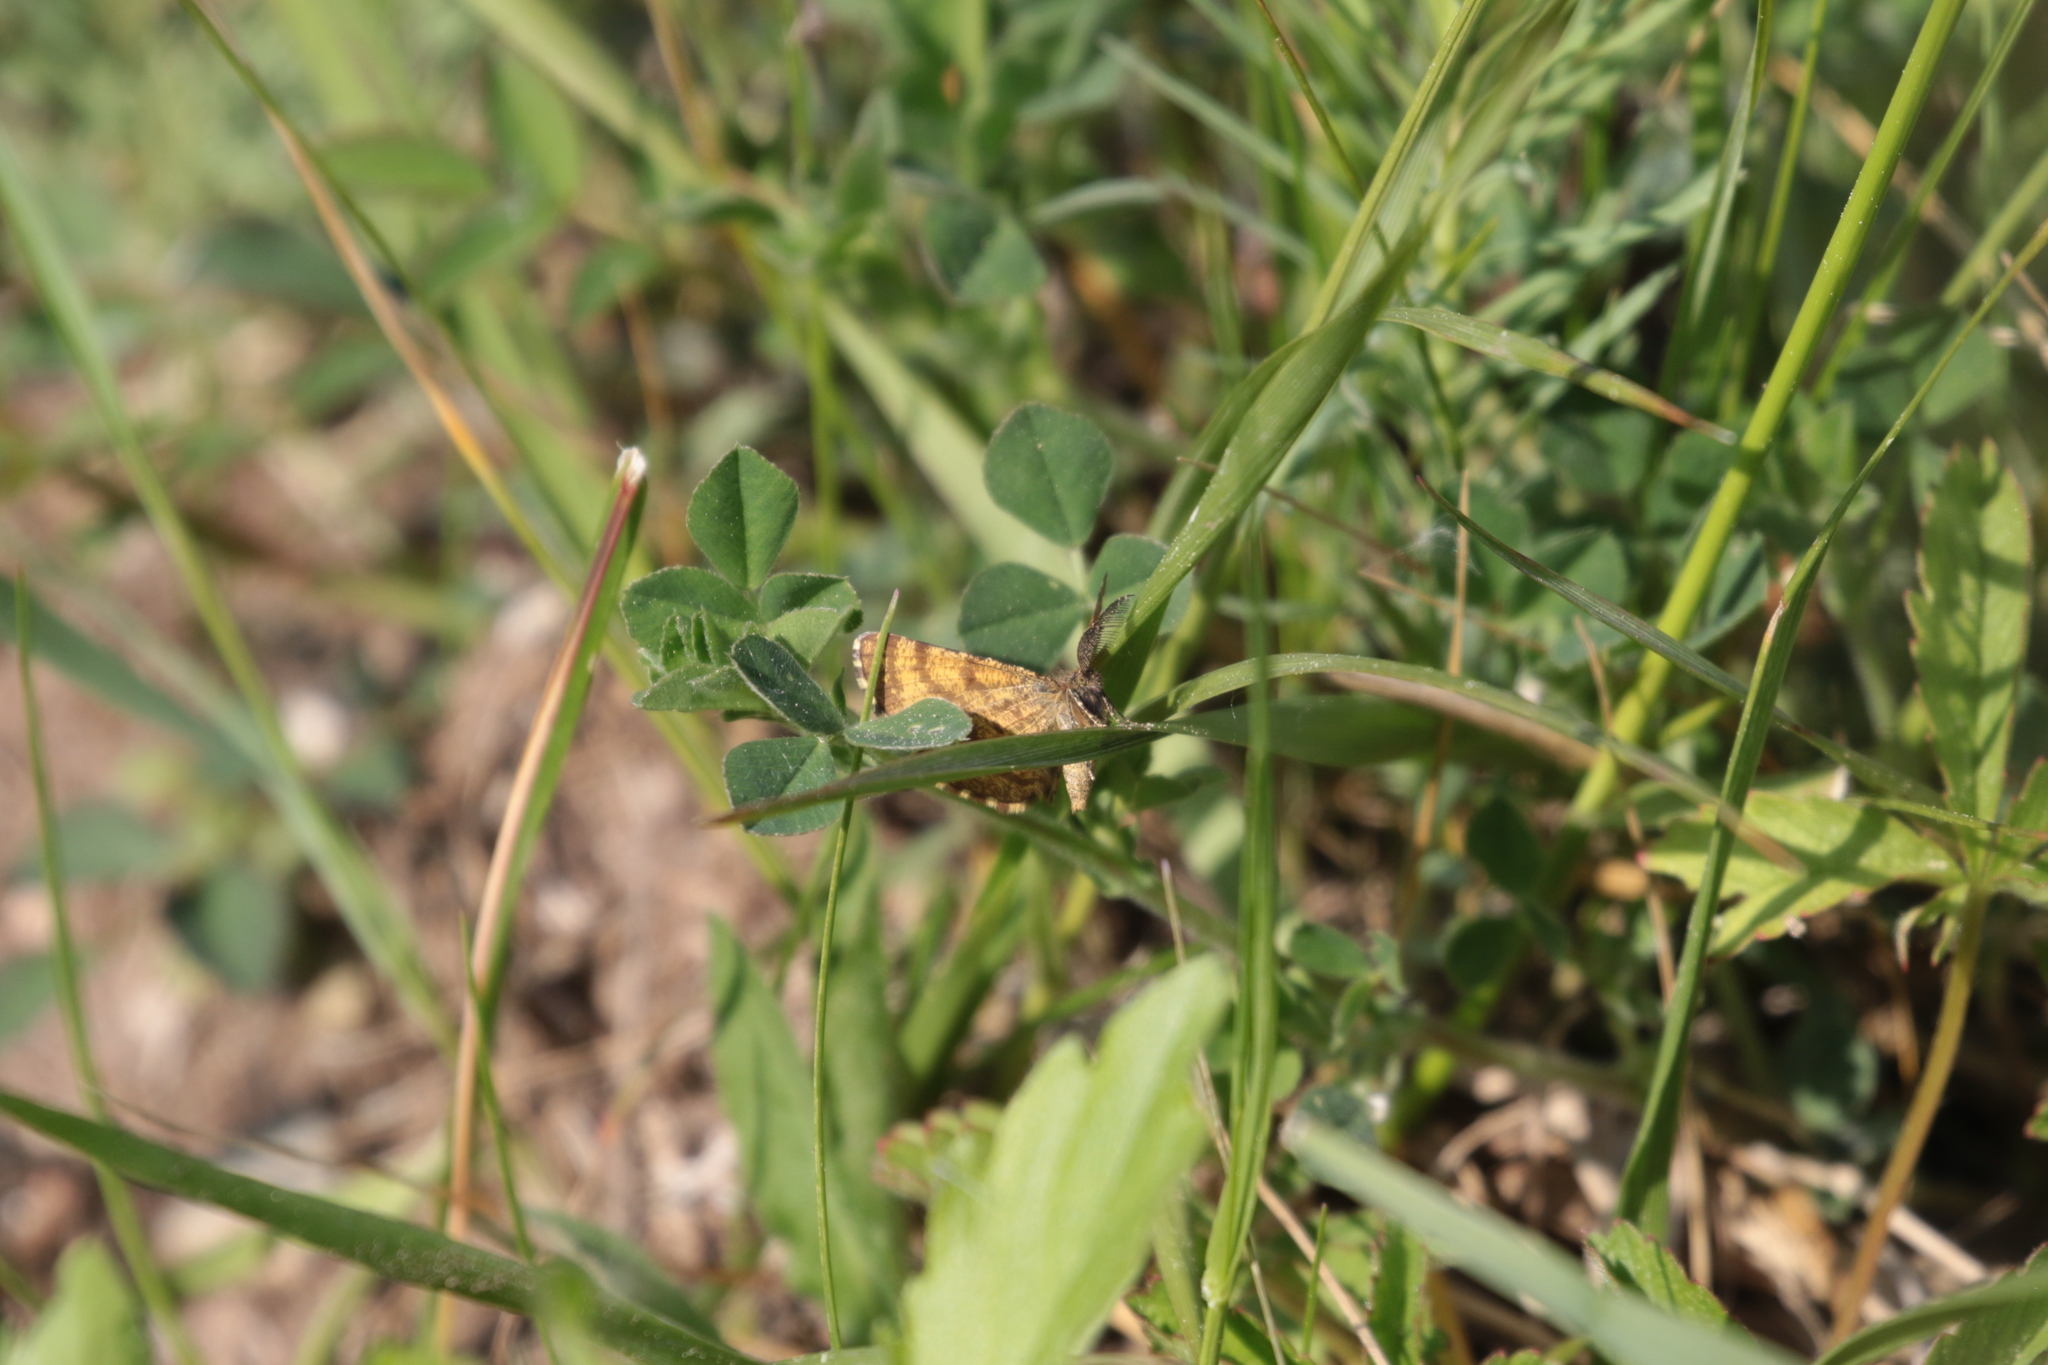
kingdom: Animalia
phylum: Arthropoda
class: Insecta
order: Lepidoptera
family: Geometridae
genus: Ematurga
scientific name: Ematurga atomaria
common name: Common heath
